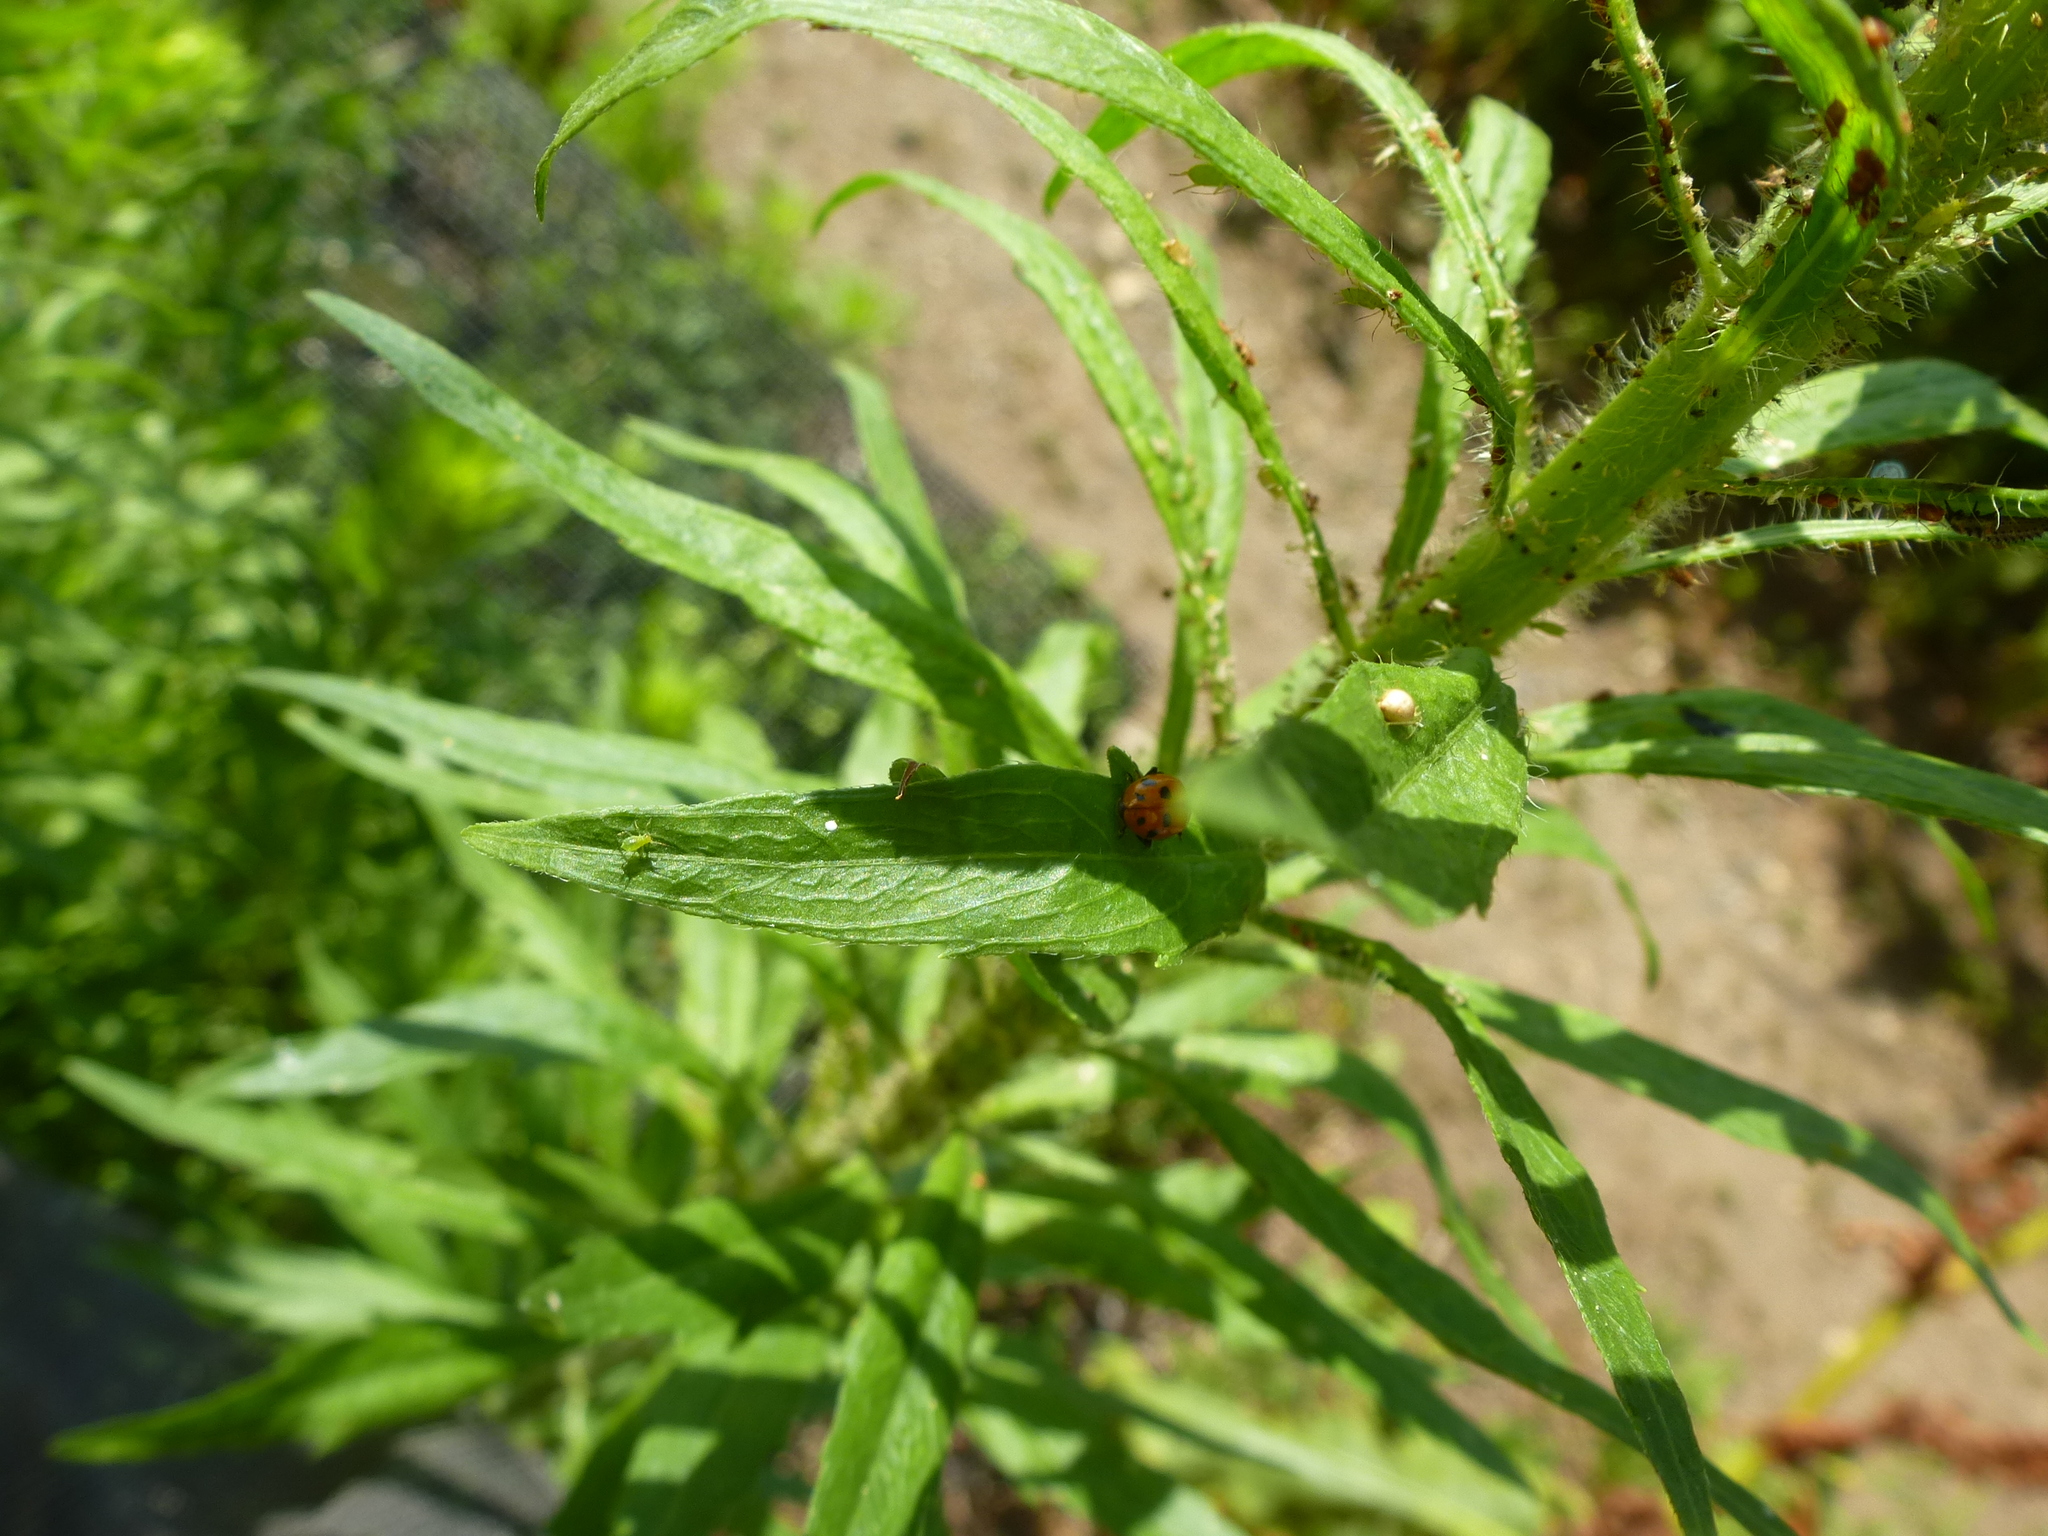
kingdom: Animalia
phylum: Arthropoda
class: Insecta
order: Coleoptera
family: Coccinellidae
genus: Hippodamia
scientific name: Hippodamia
